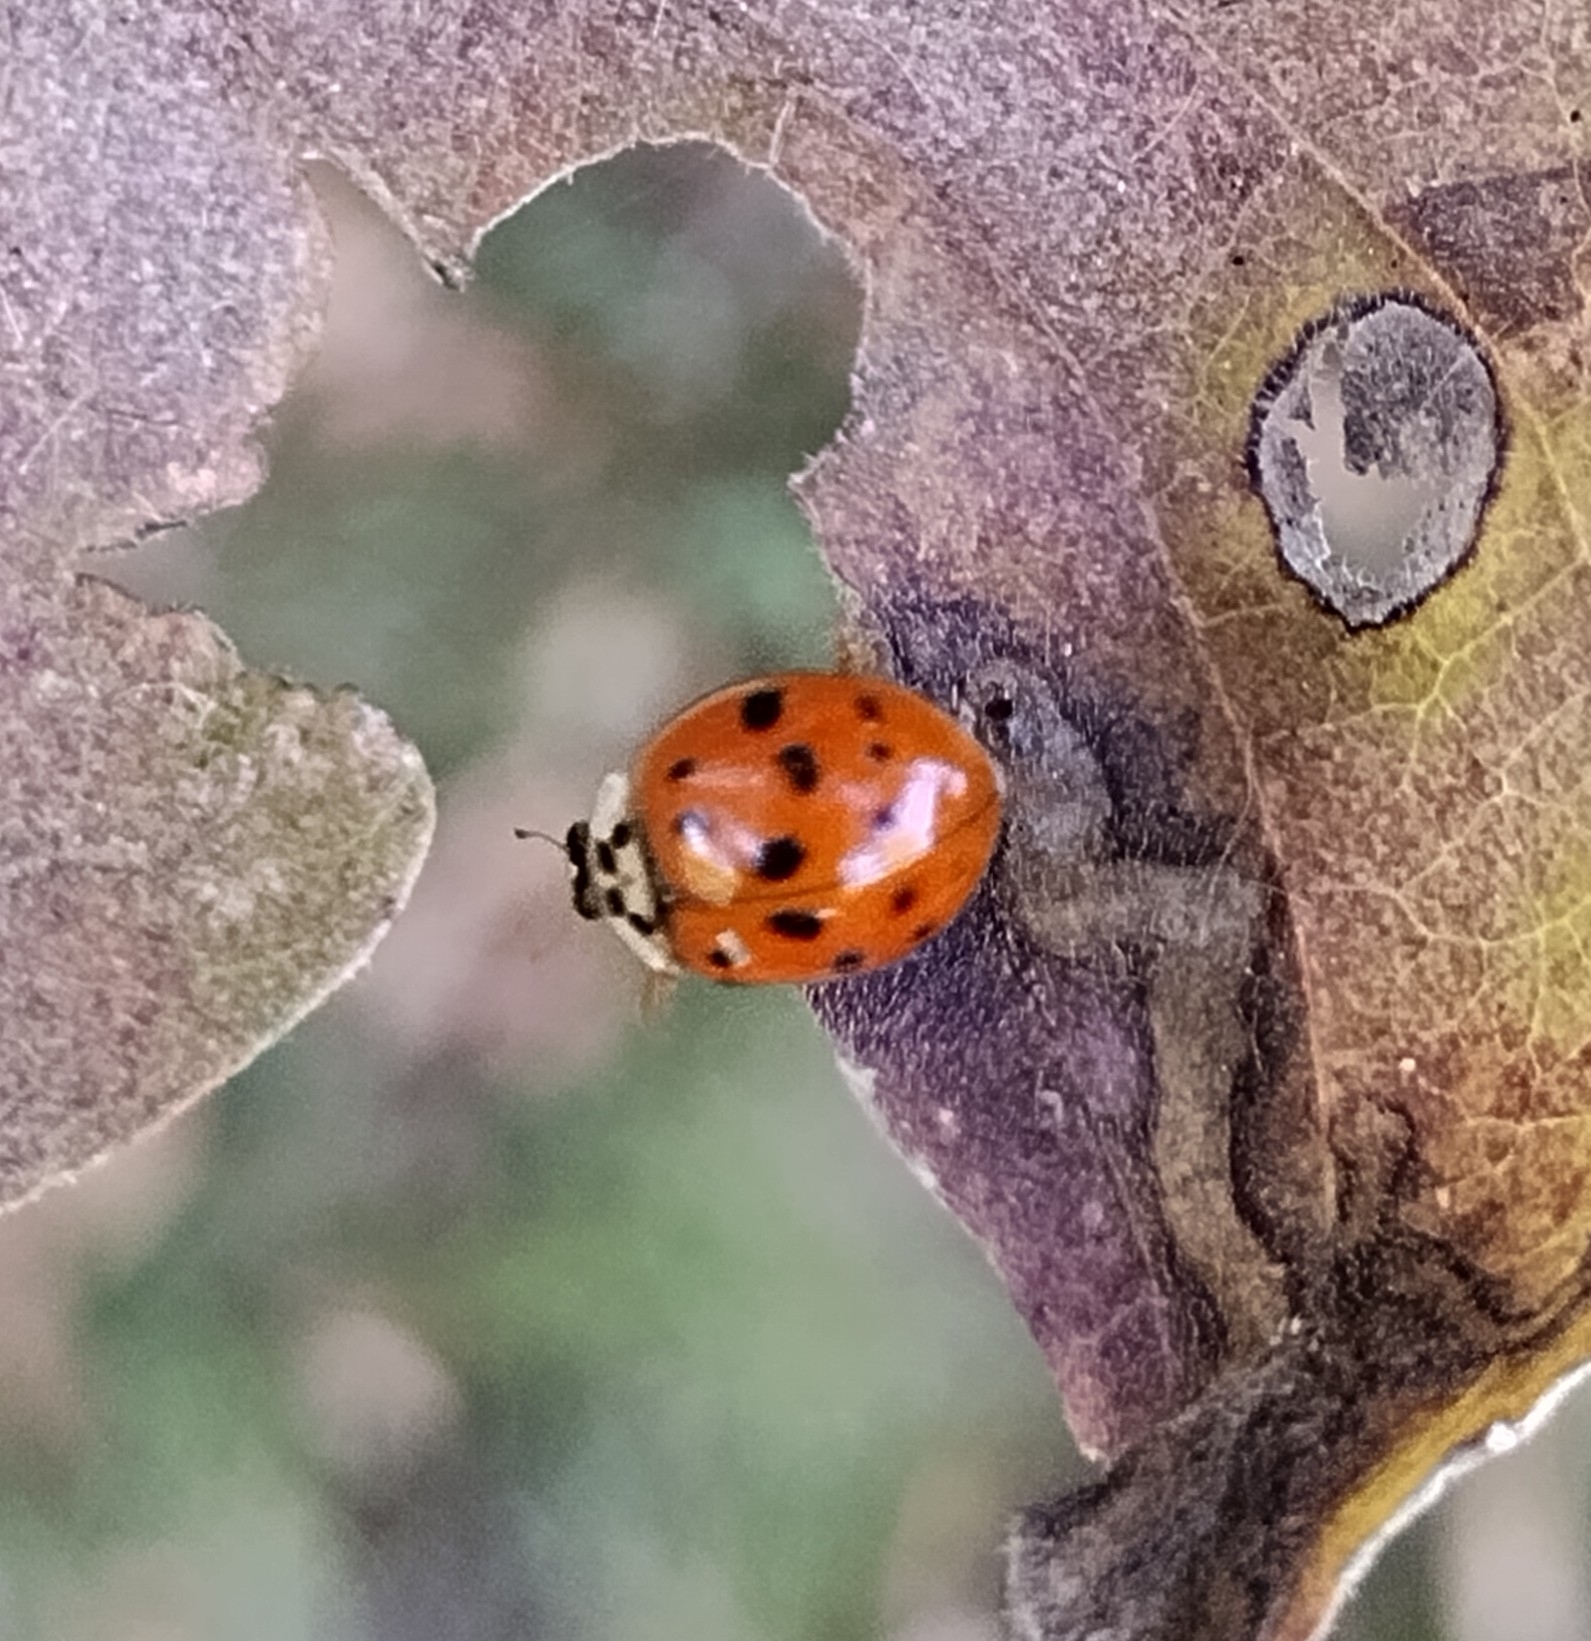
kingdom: Animalia
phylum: Arthropoda
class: Insecta
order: Coleoptera
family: Coccinellidae
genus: Harmonia
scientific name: Harmonia axyridis
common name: Harlequin ladybird
